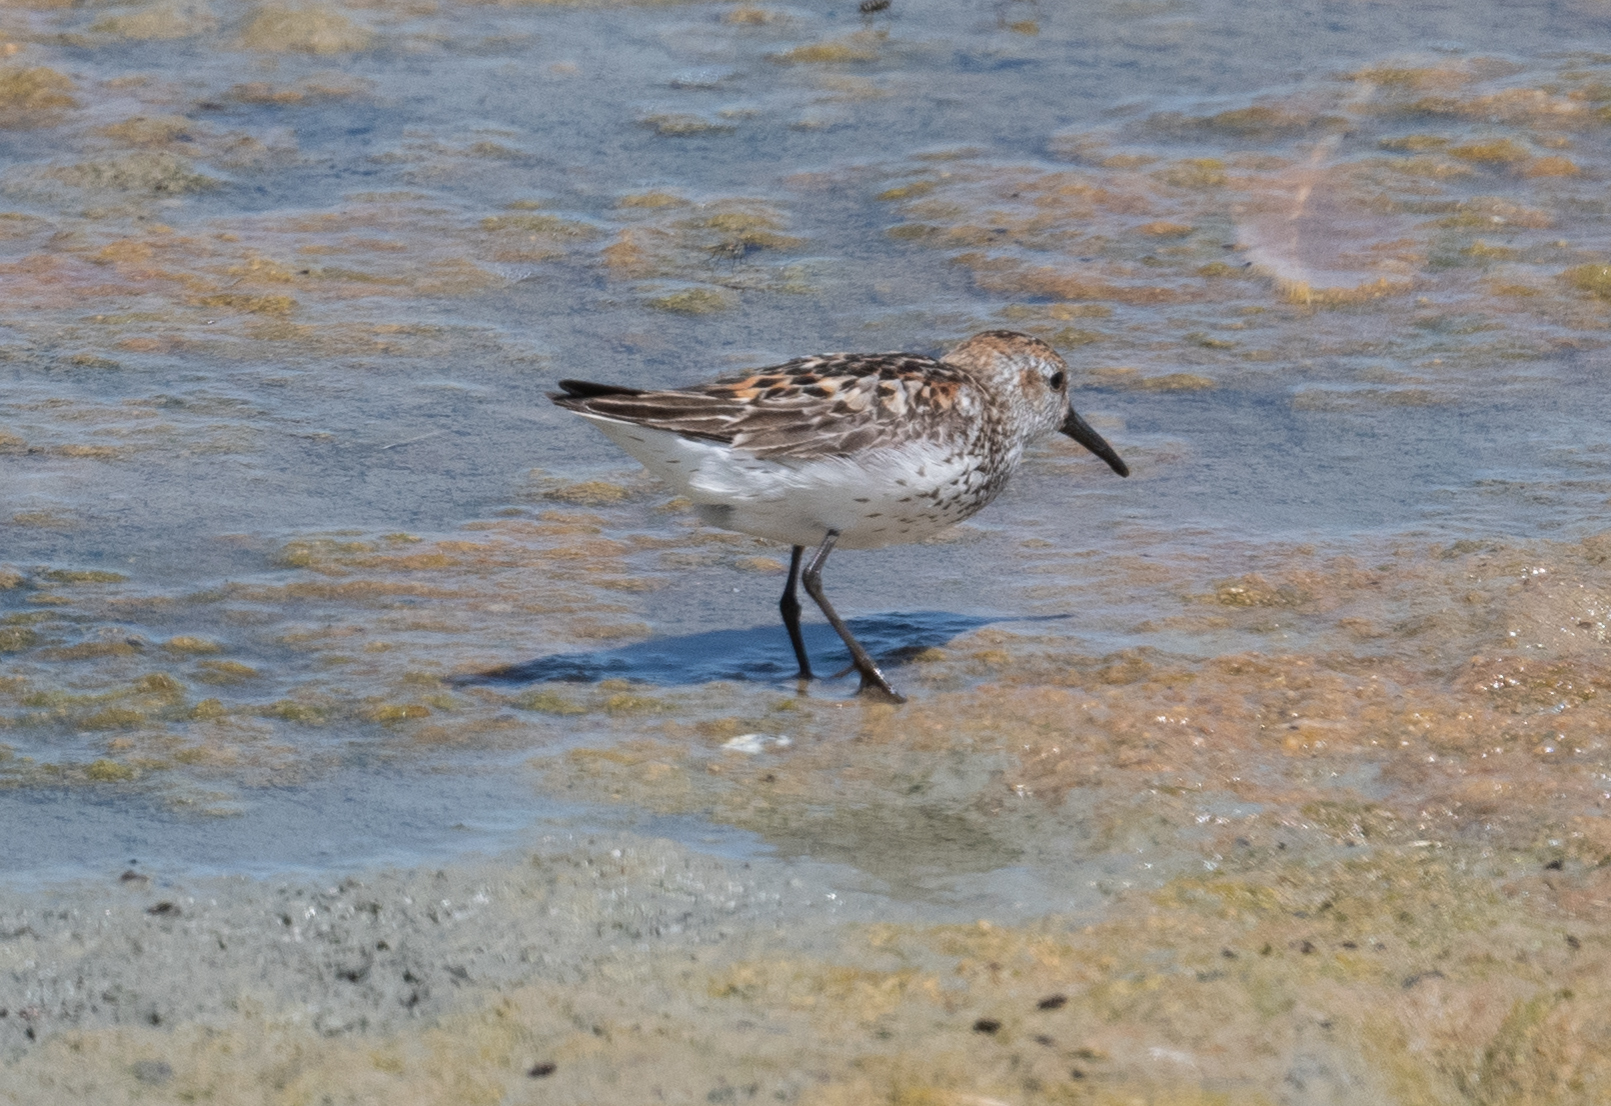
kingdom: Animalia
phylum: Chordata
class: Aves
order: Charadriiformes
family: Scolopacidae
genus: Calidris
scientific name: Calidris mauri
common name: Western sandpiper
